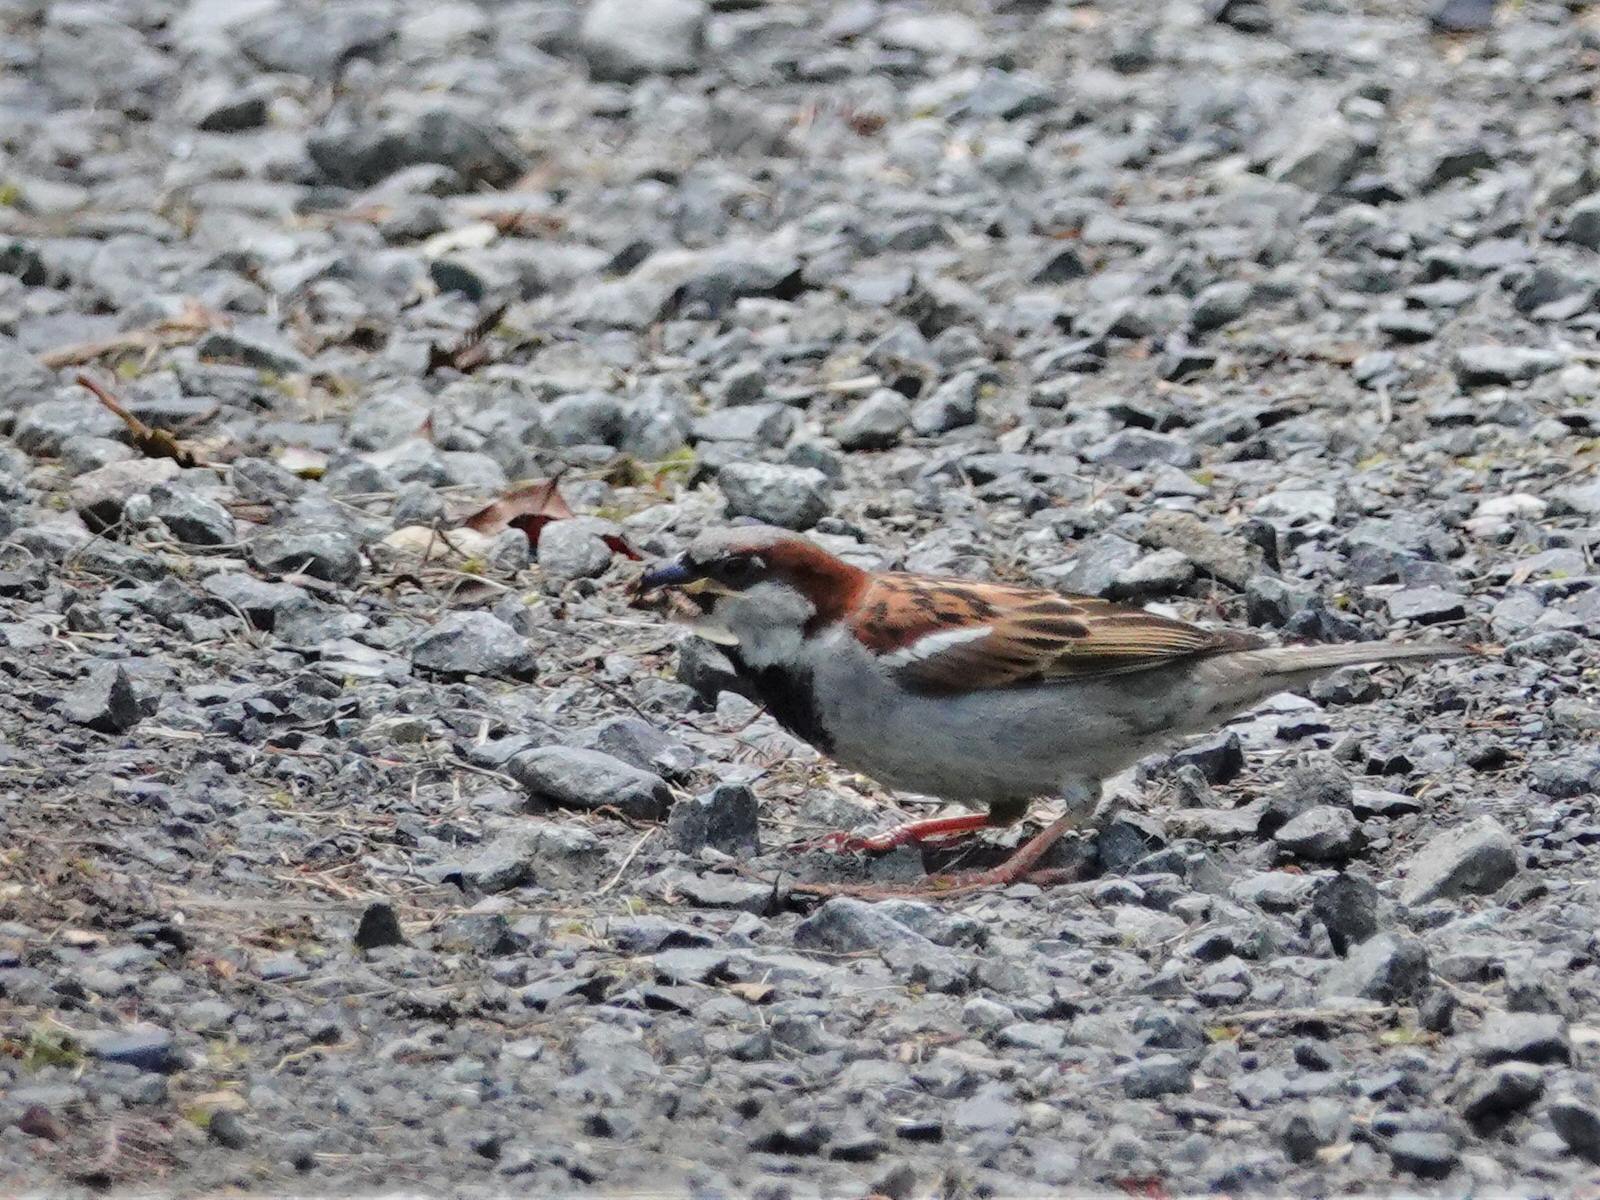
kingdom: Animalia
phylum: Chordata
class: Aves
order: Passeriformes
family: Passeridae
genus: Passer
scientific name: Passer domesticus
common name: House sparrow
